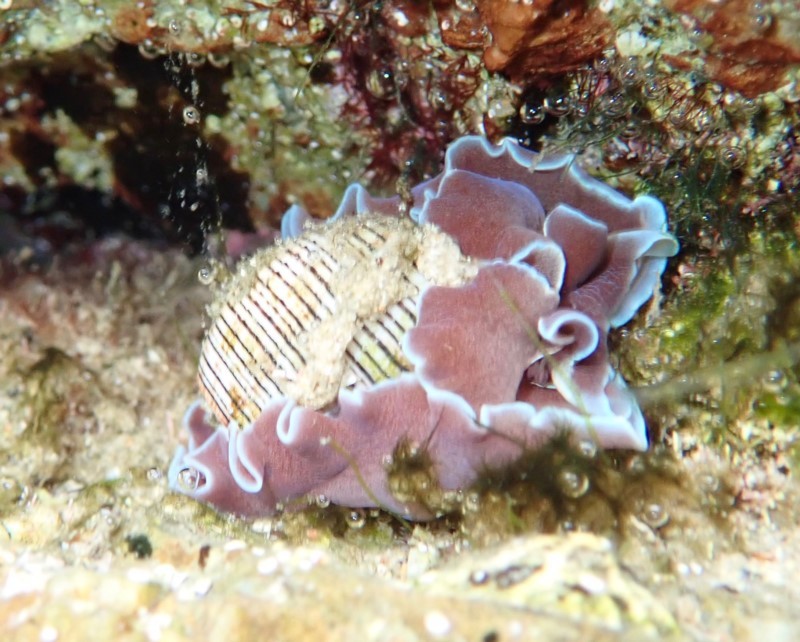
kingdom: Animalia
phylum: Mollusca
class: Gastropoda
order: Cephalaspidea
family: Aplustridae
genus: Hydatina
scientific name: Hydatina physis
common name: Brown-line paperbubble
